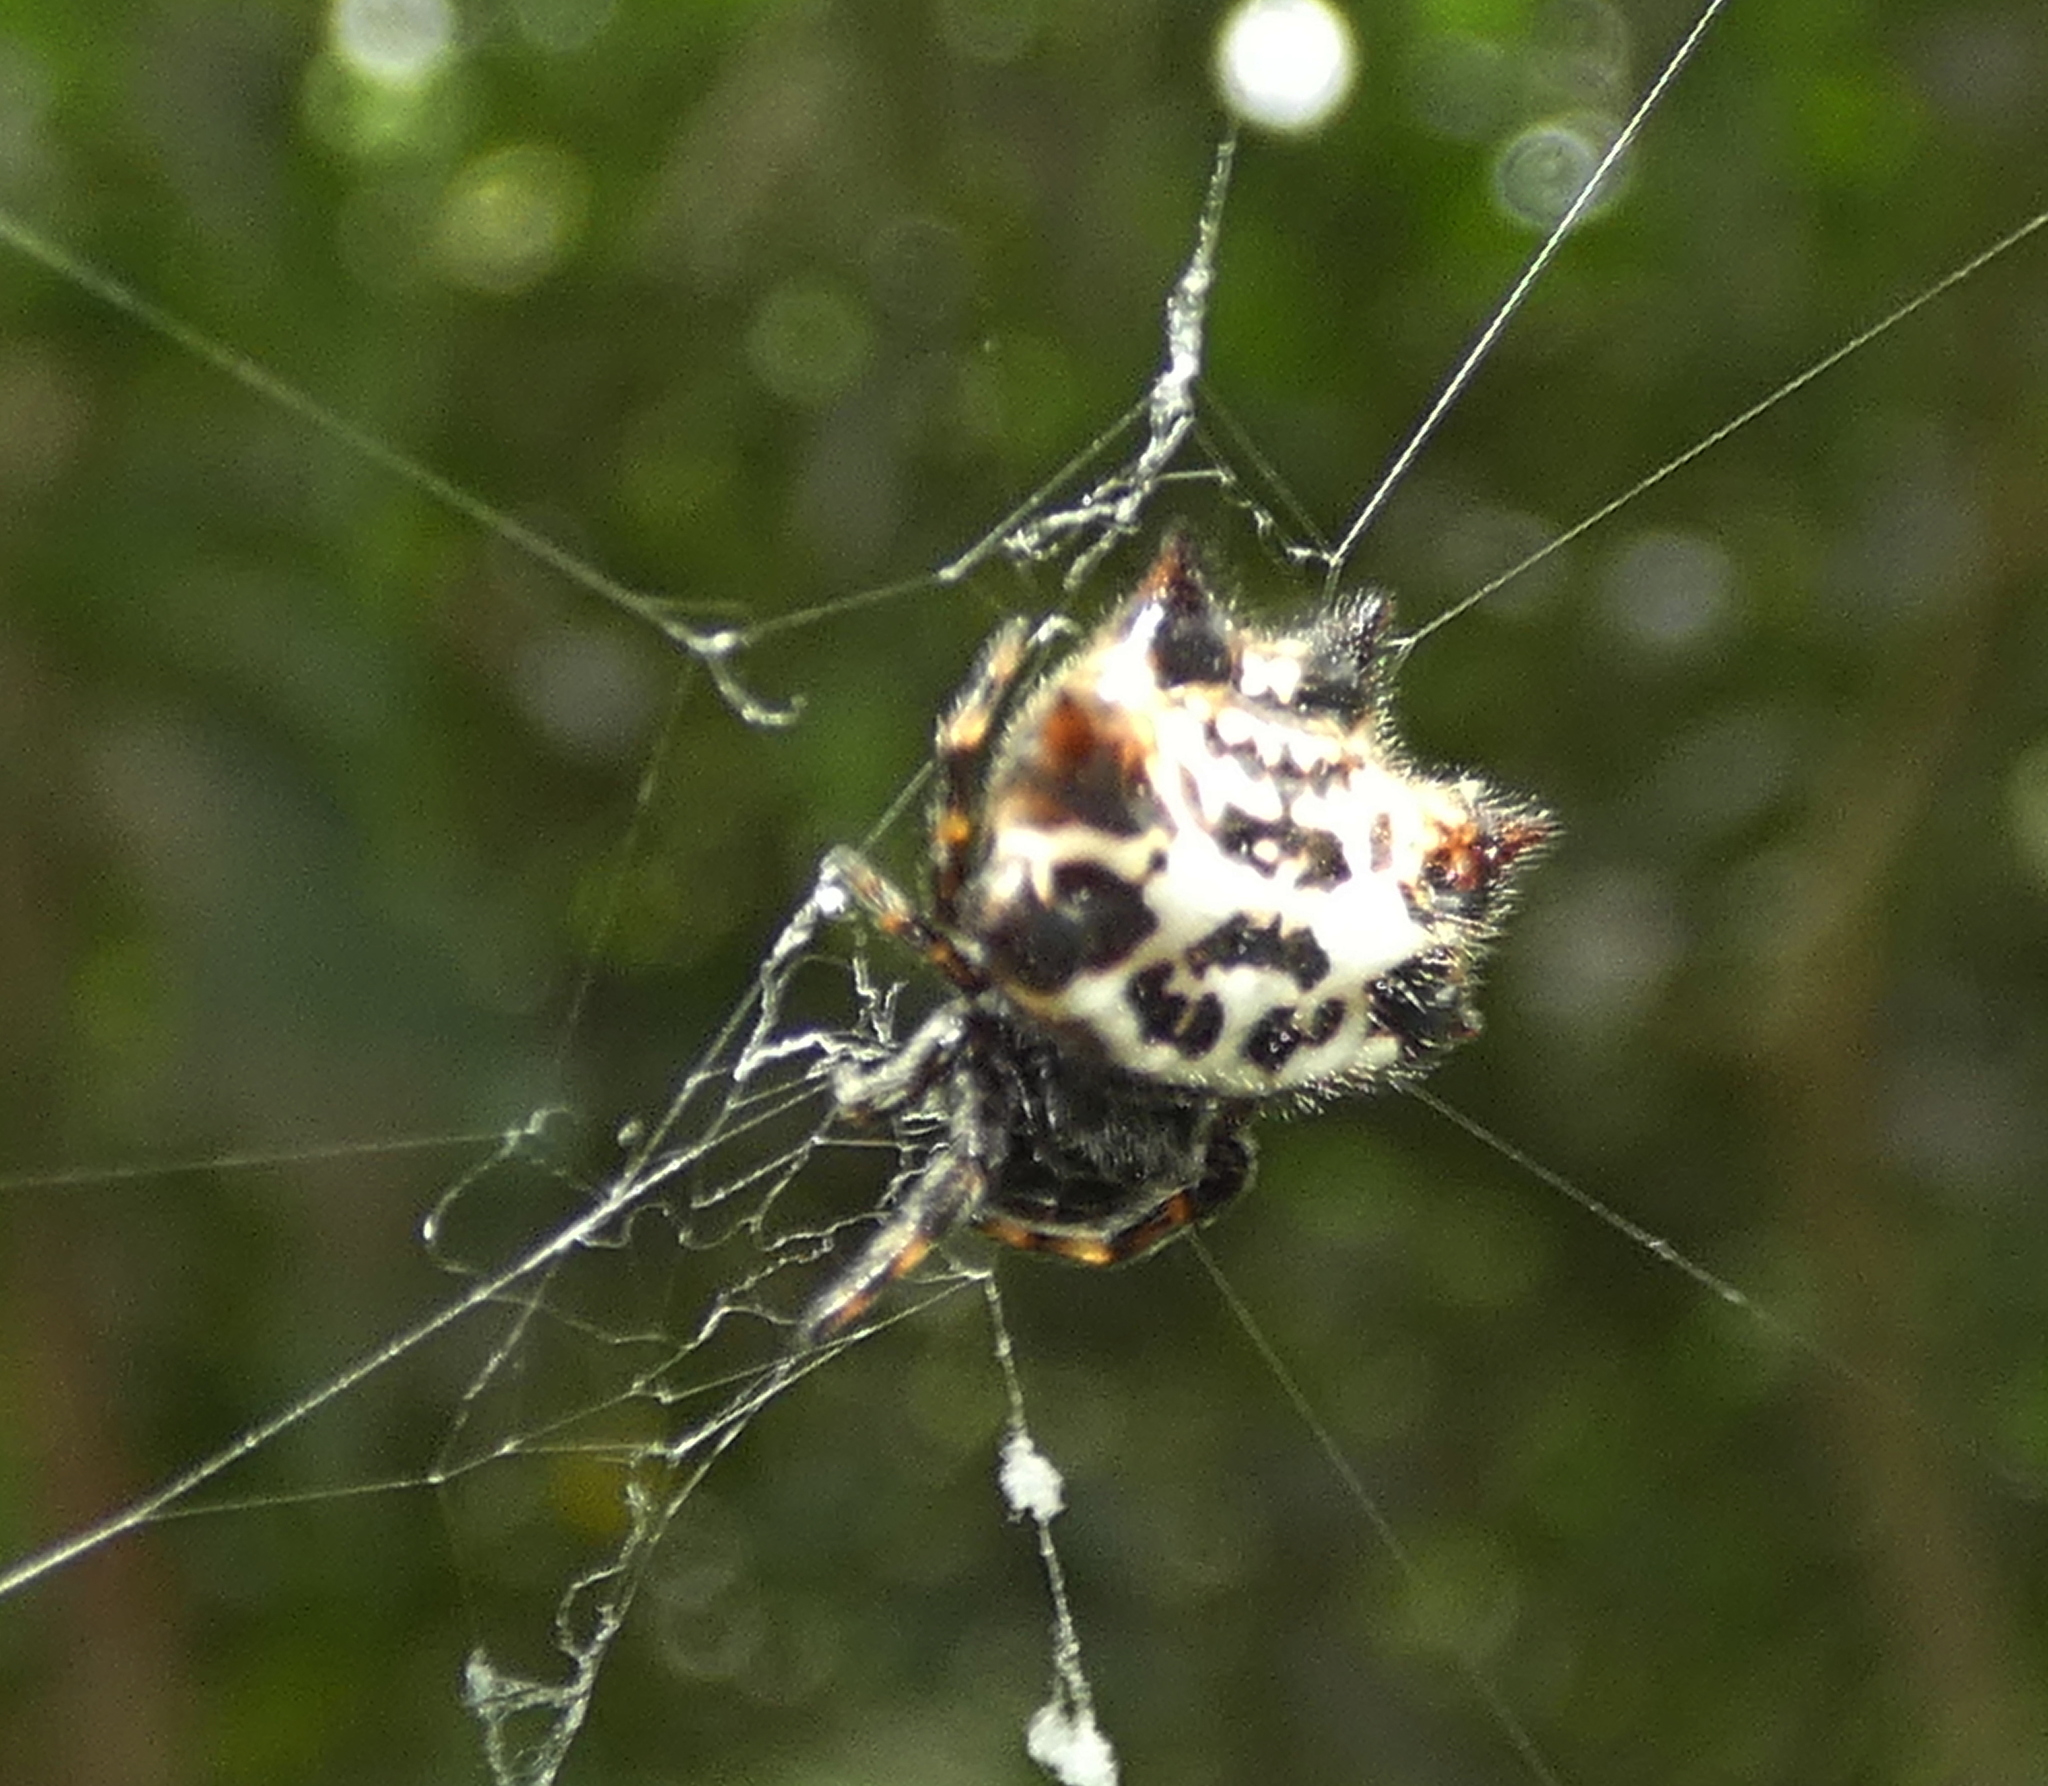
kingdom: Animalia
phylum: Arthropoda
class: Arachnida
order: Araneae
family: Araneidae
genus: Gasteracantha
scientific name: Gasteracantha cancriformis
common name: Orb weavers
